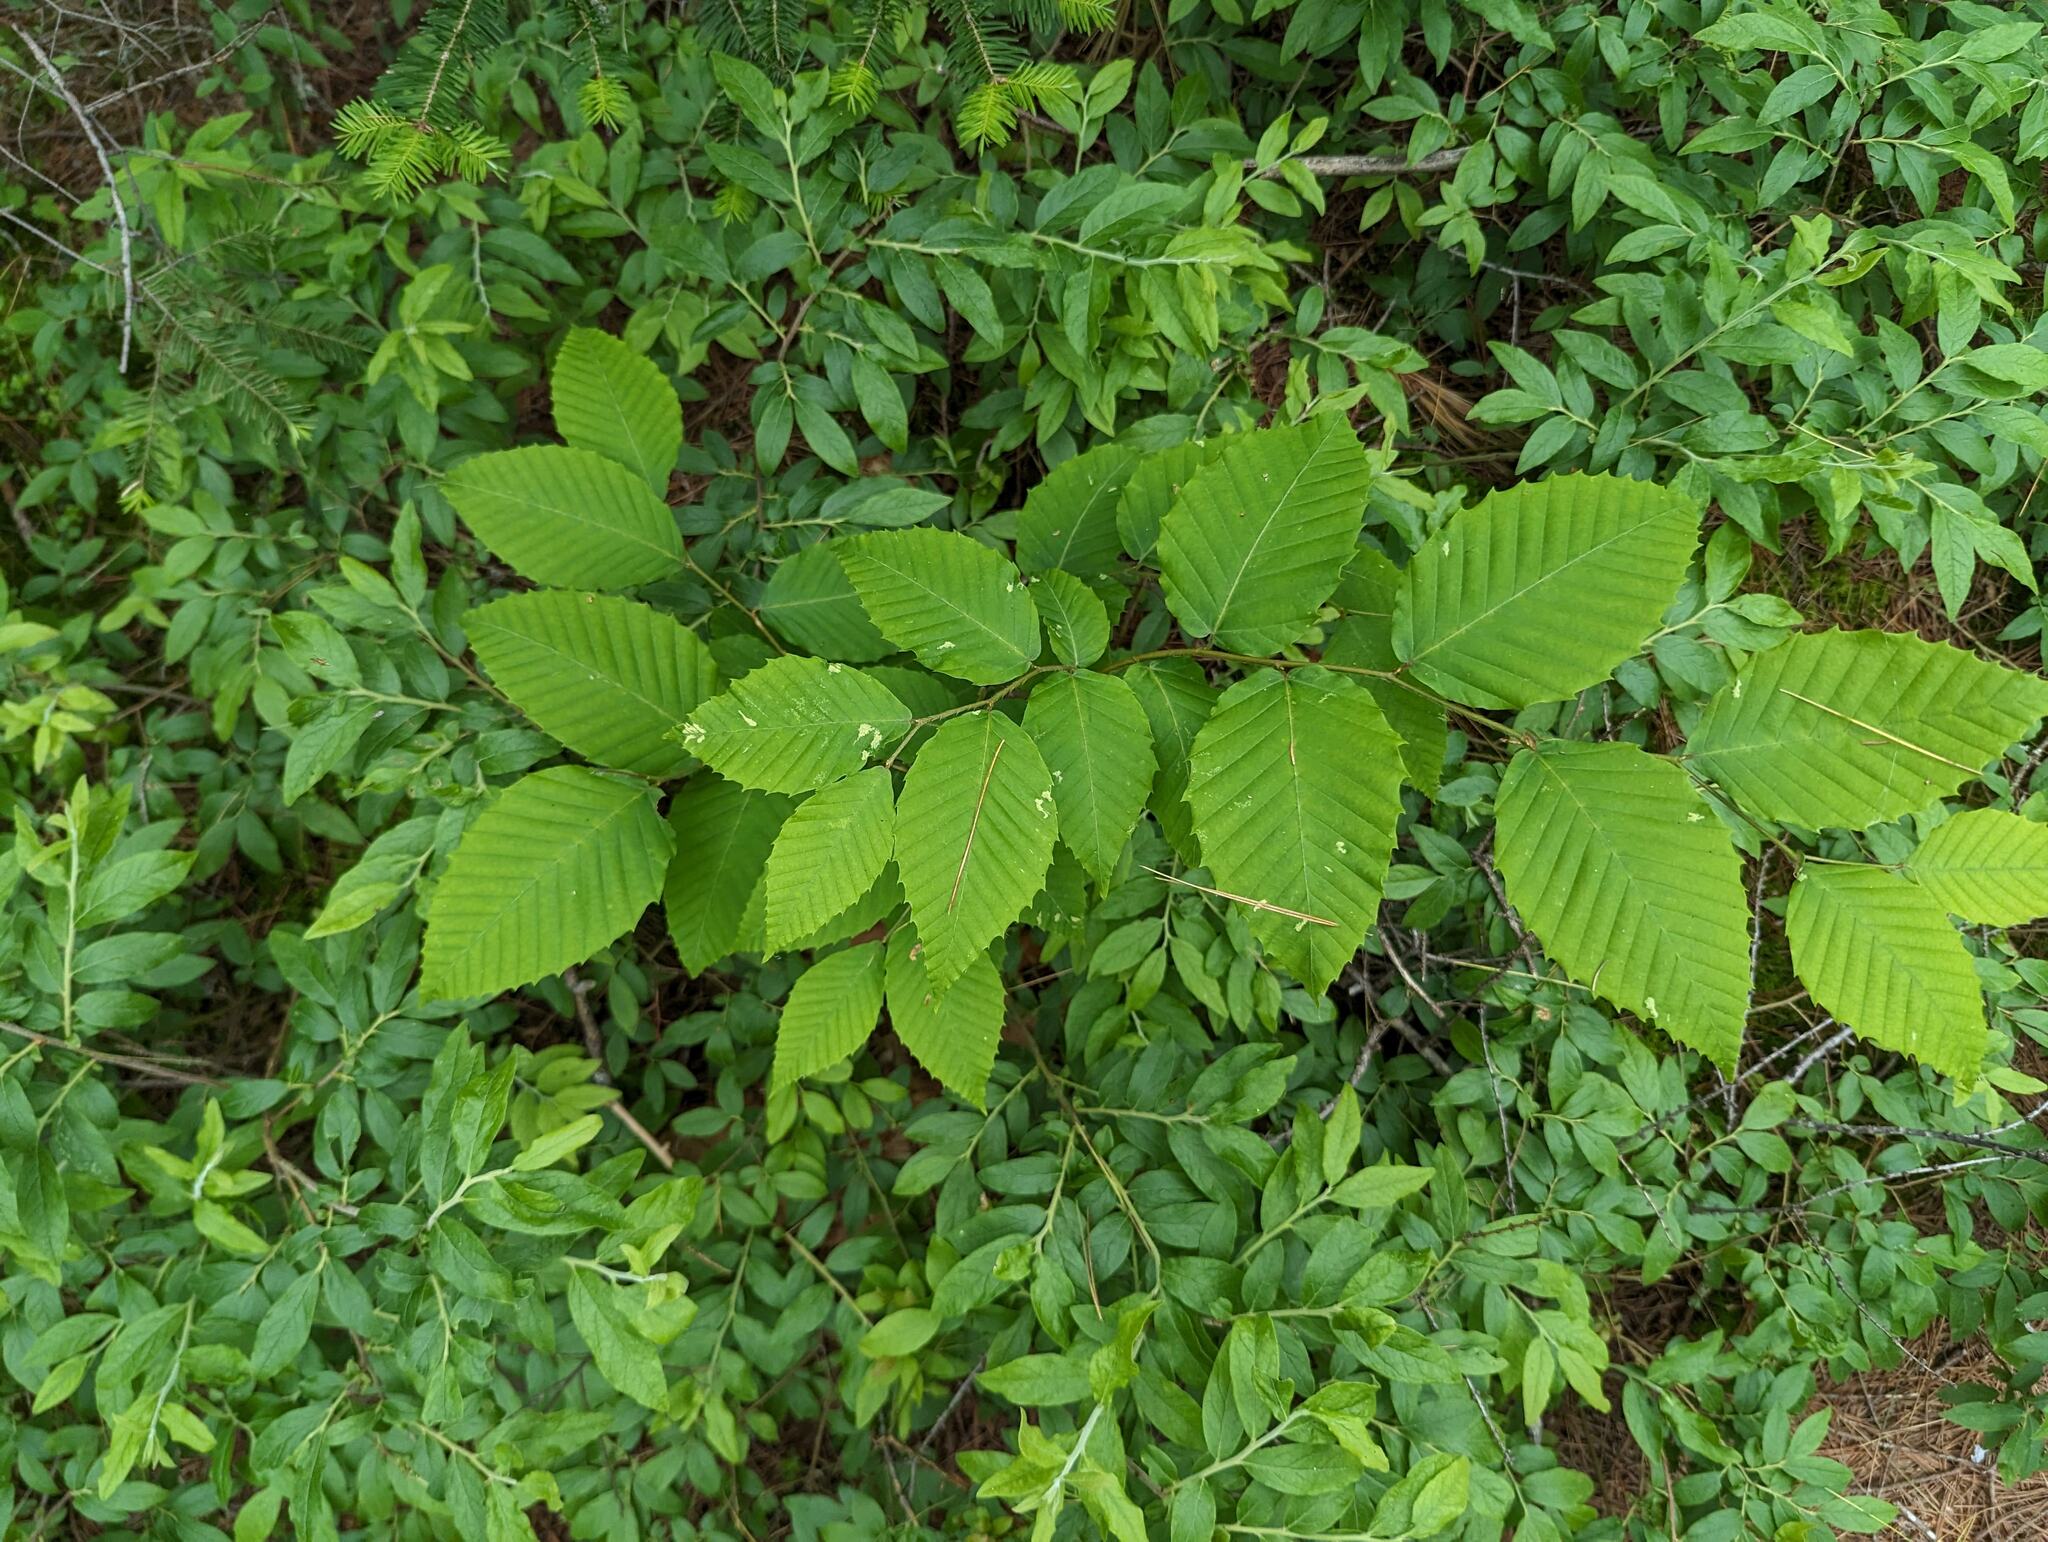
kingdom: Plantae
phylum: Tracheophyta
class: Magnoliopsida
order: Fagales
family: Fagaceae
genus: Fagus
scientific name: Fagus grandifolia
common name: American beech
